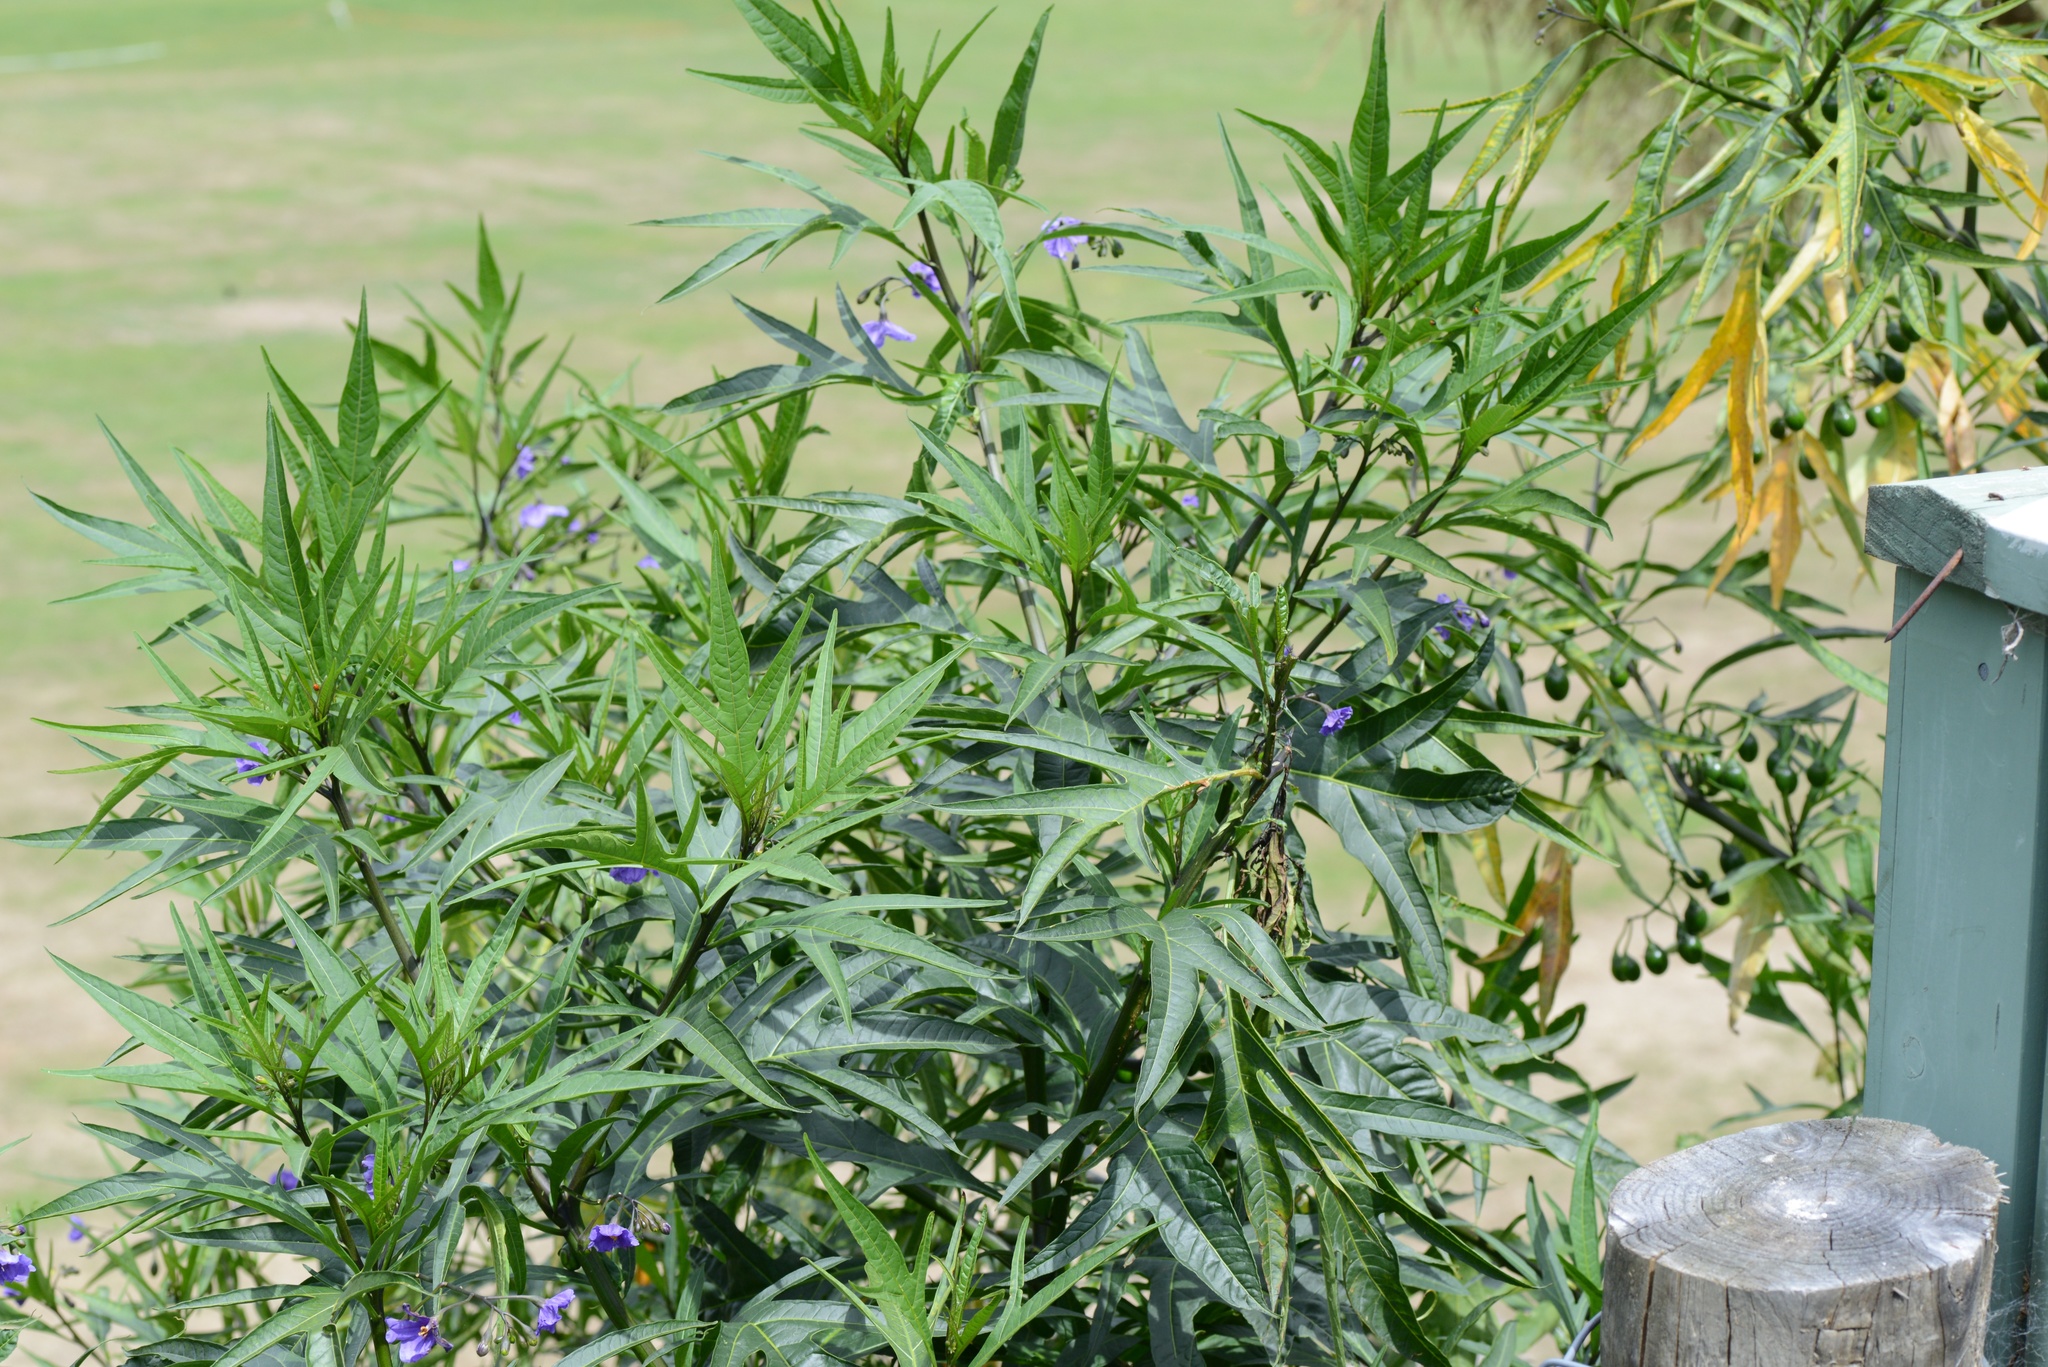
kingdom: Plantae
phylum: Tracheophyta
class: Magnoliopsida
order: Solanales
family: Solanaceae
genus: Solanum
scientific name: Solanum laciniatum
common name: Kangaroo-apple
